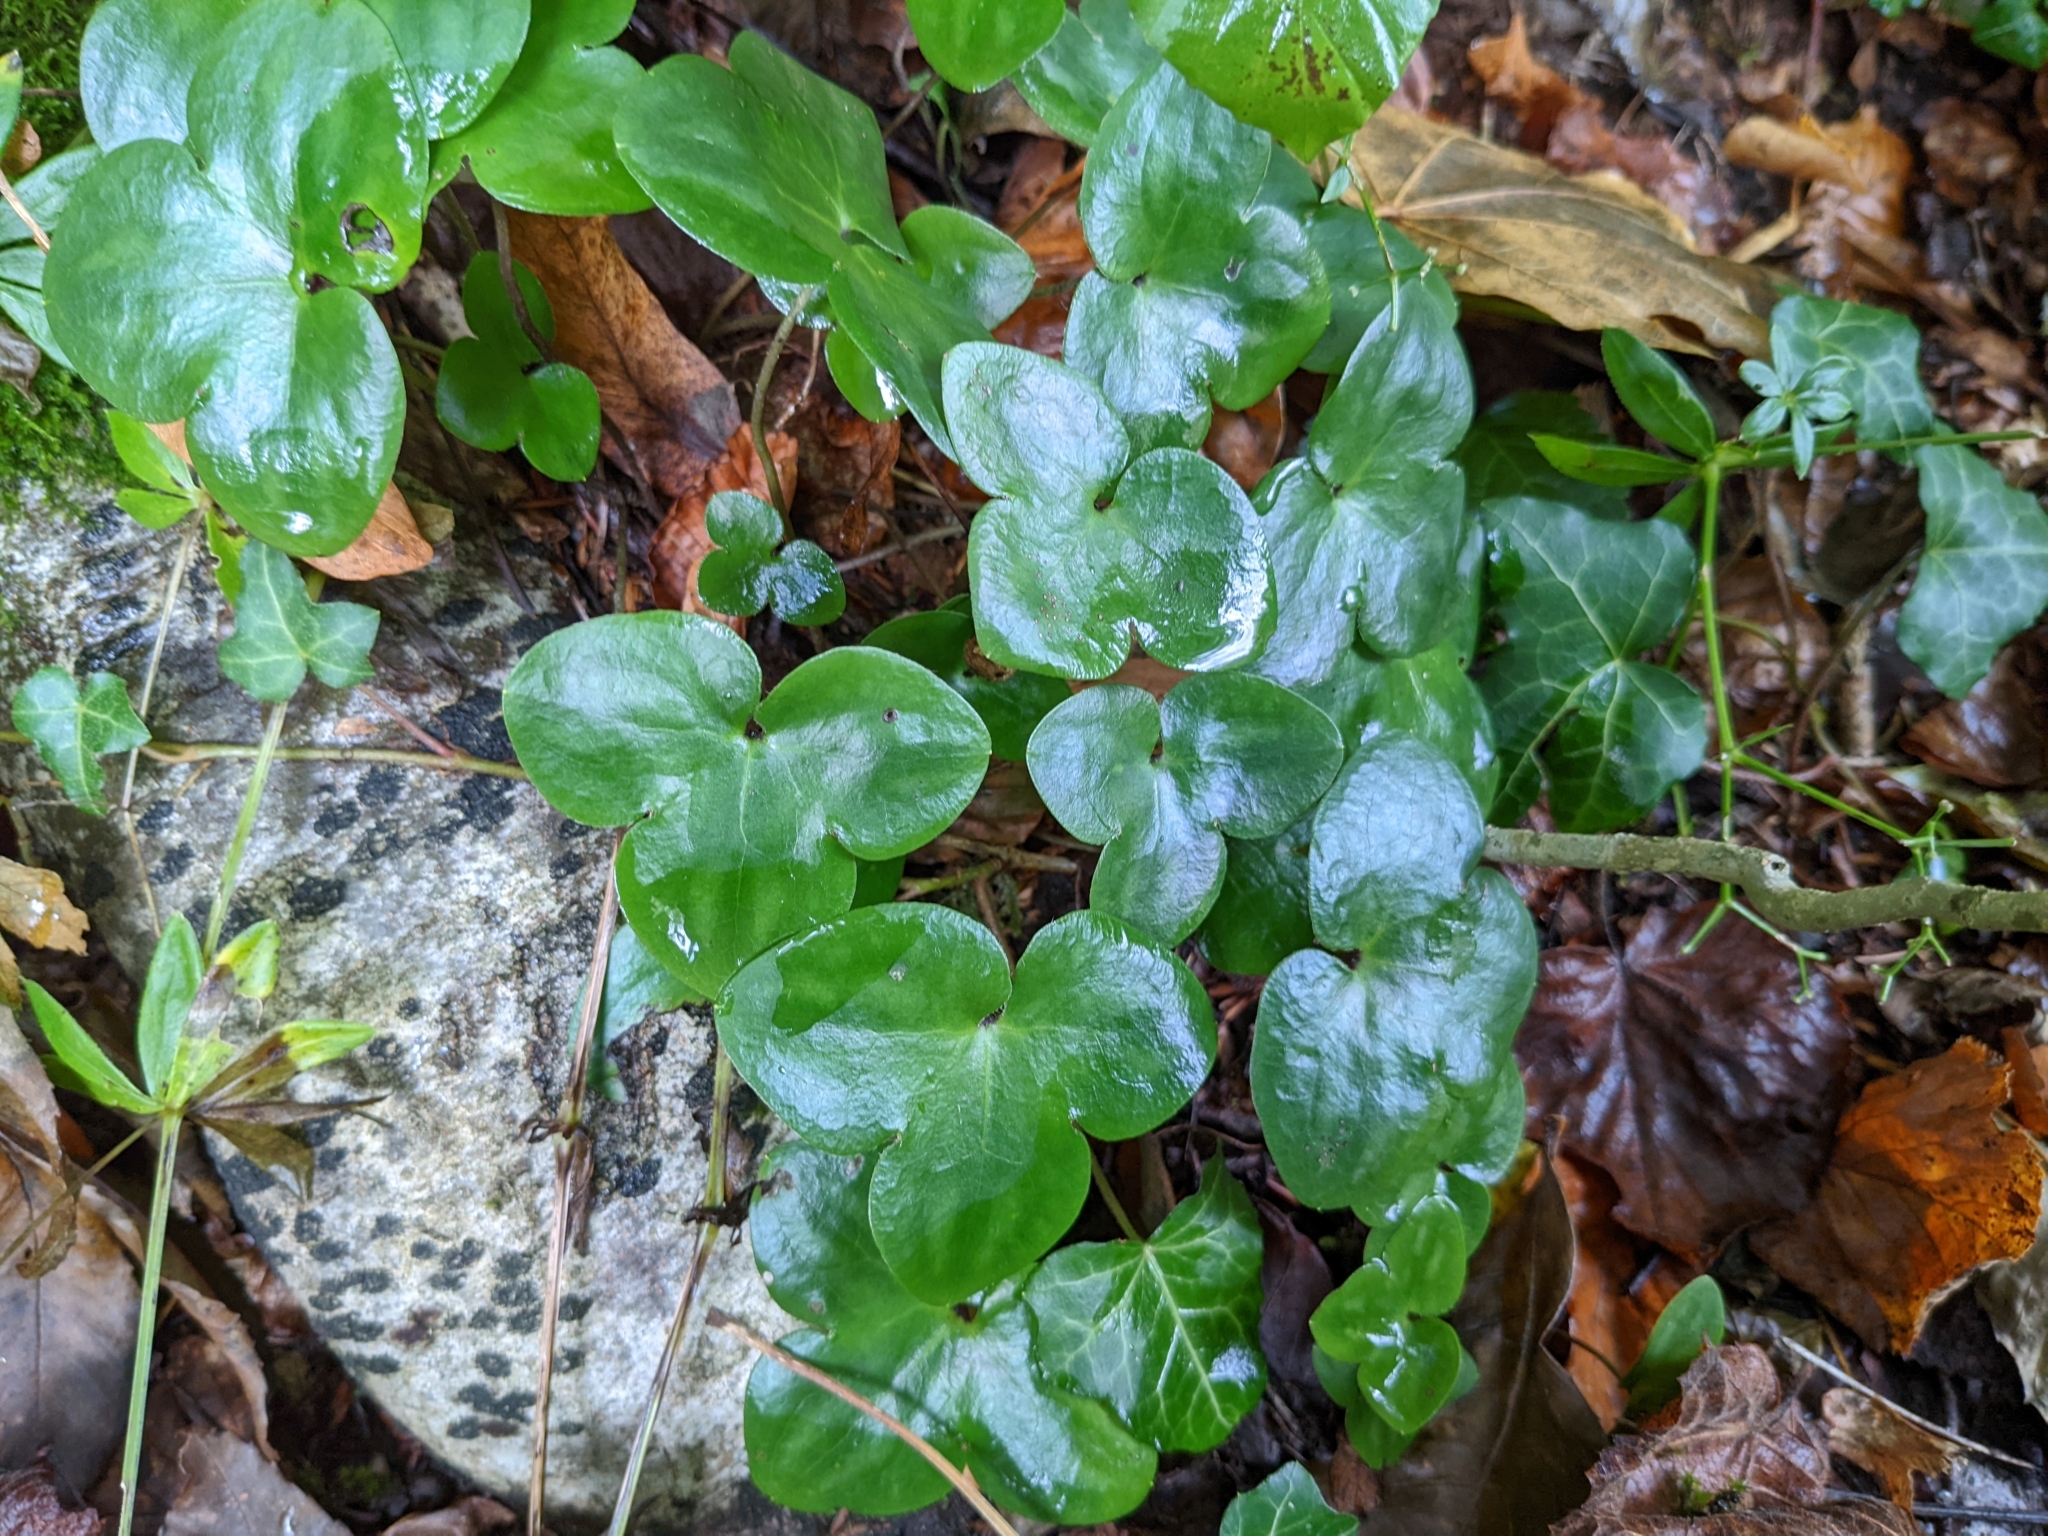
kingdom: Plantae
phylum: Tracheophyta
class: Magnoliopsida
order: Ranunculales
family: Ranunculaceae
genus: Hepatica
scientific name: Hepatica nobilis
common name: Liverleaf
